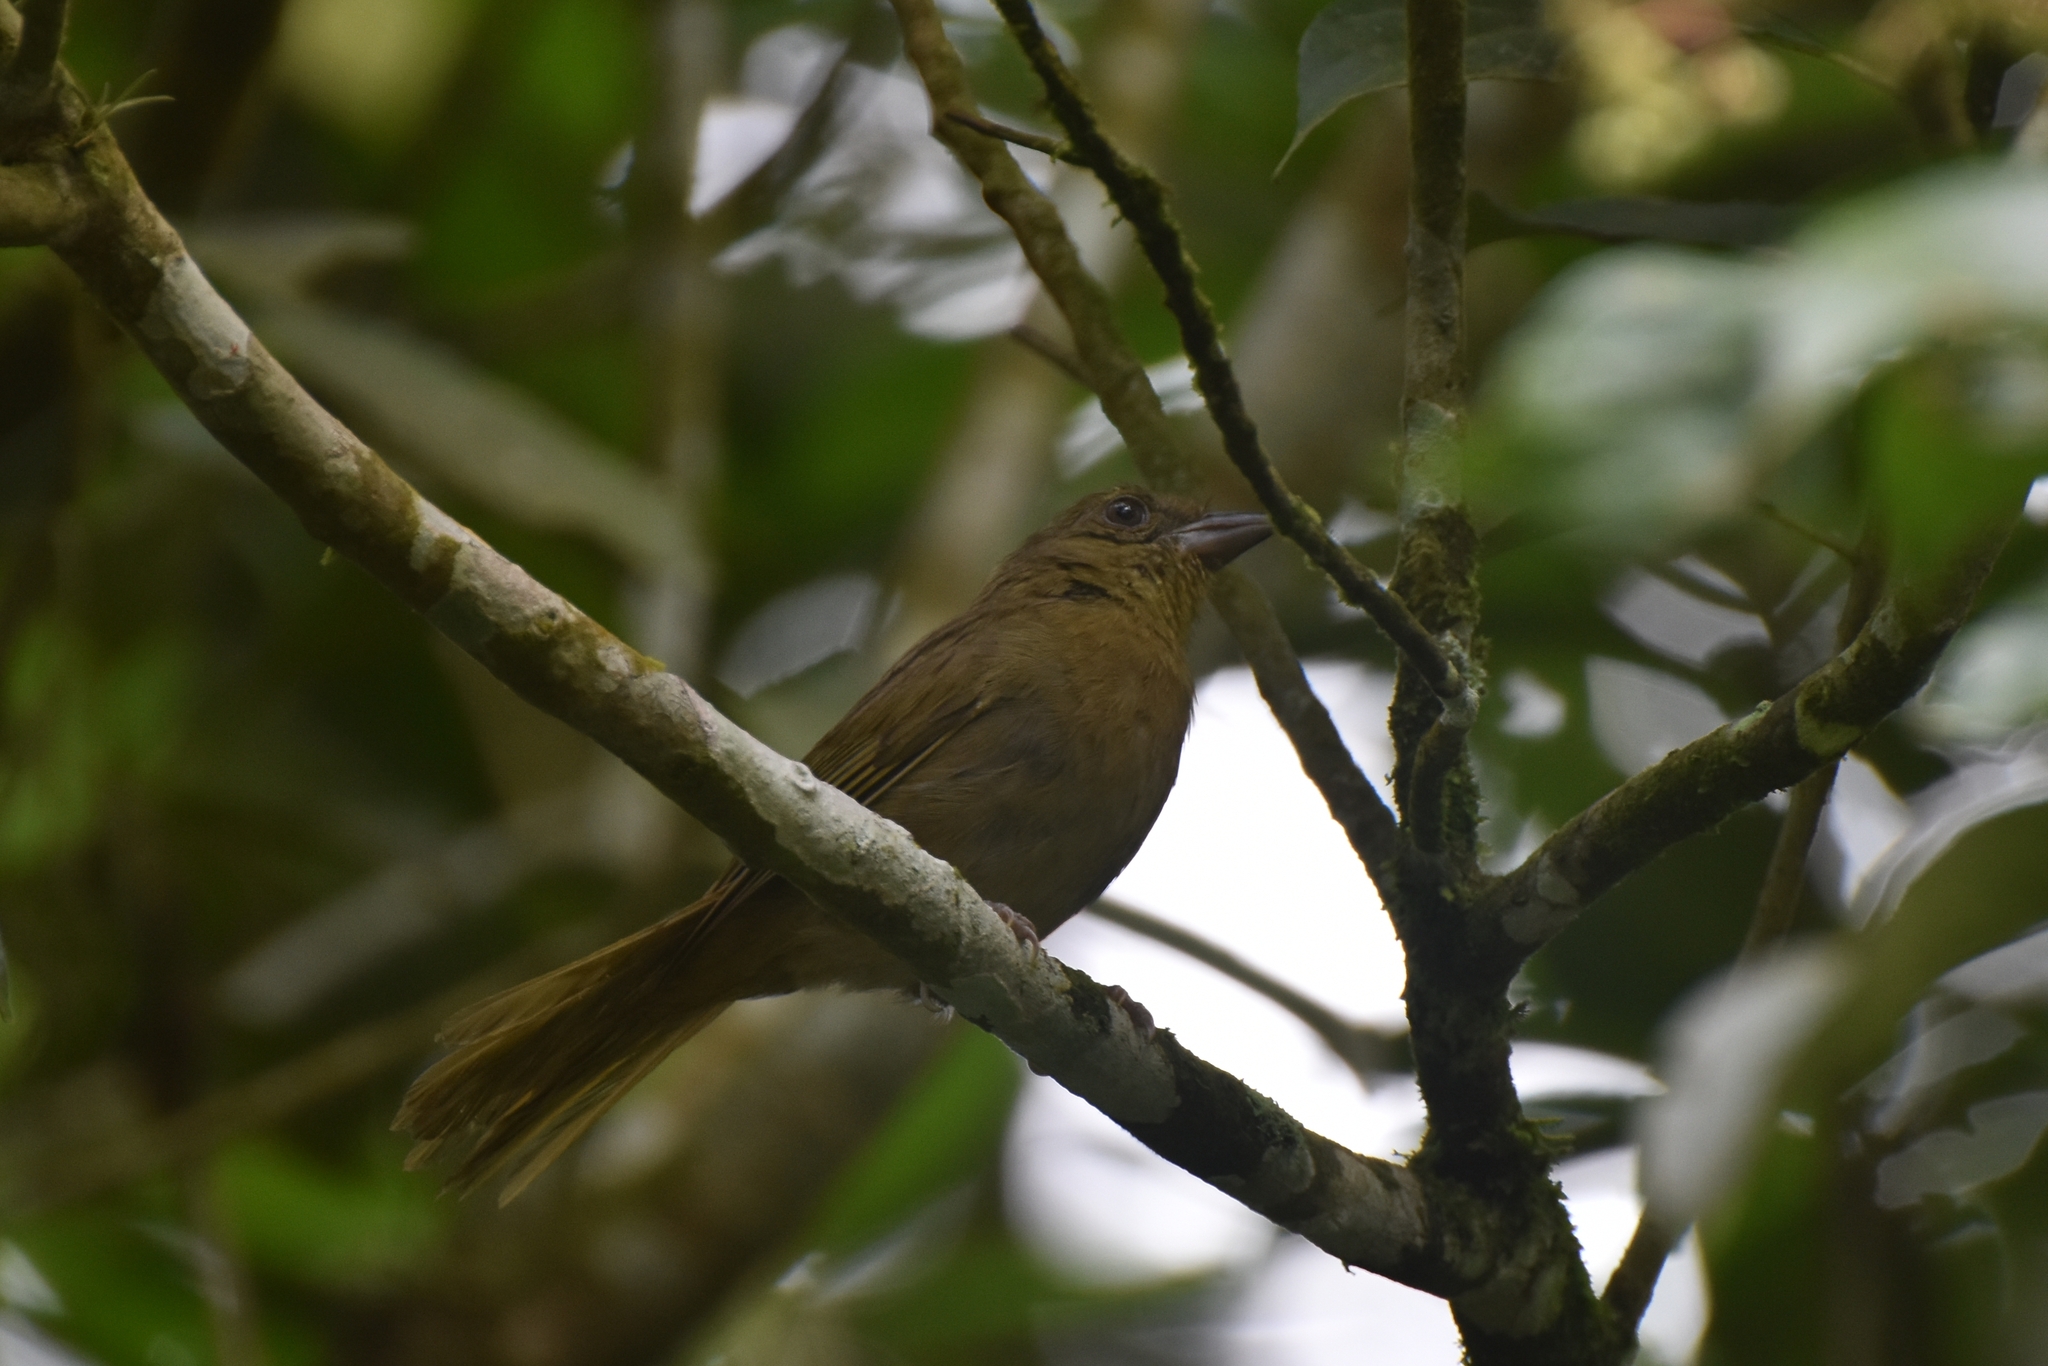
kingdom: Animalia
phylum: Chordata
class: Aves
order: Passeriformes
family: Cardinalidae
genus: Habia
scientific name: Habia rubica
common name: Red-crowned ant-tanager
